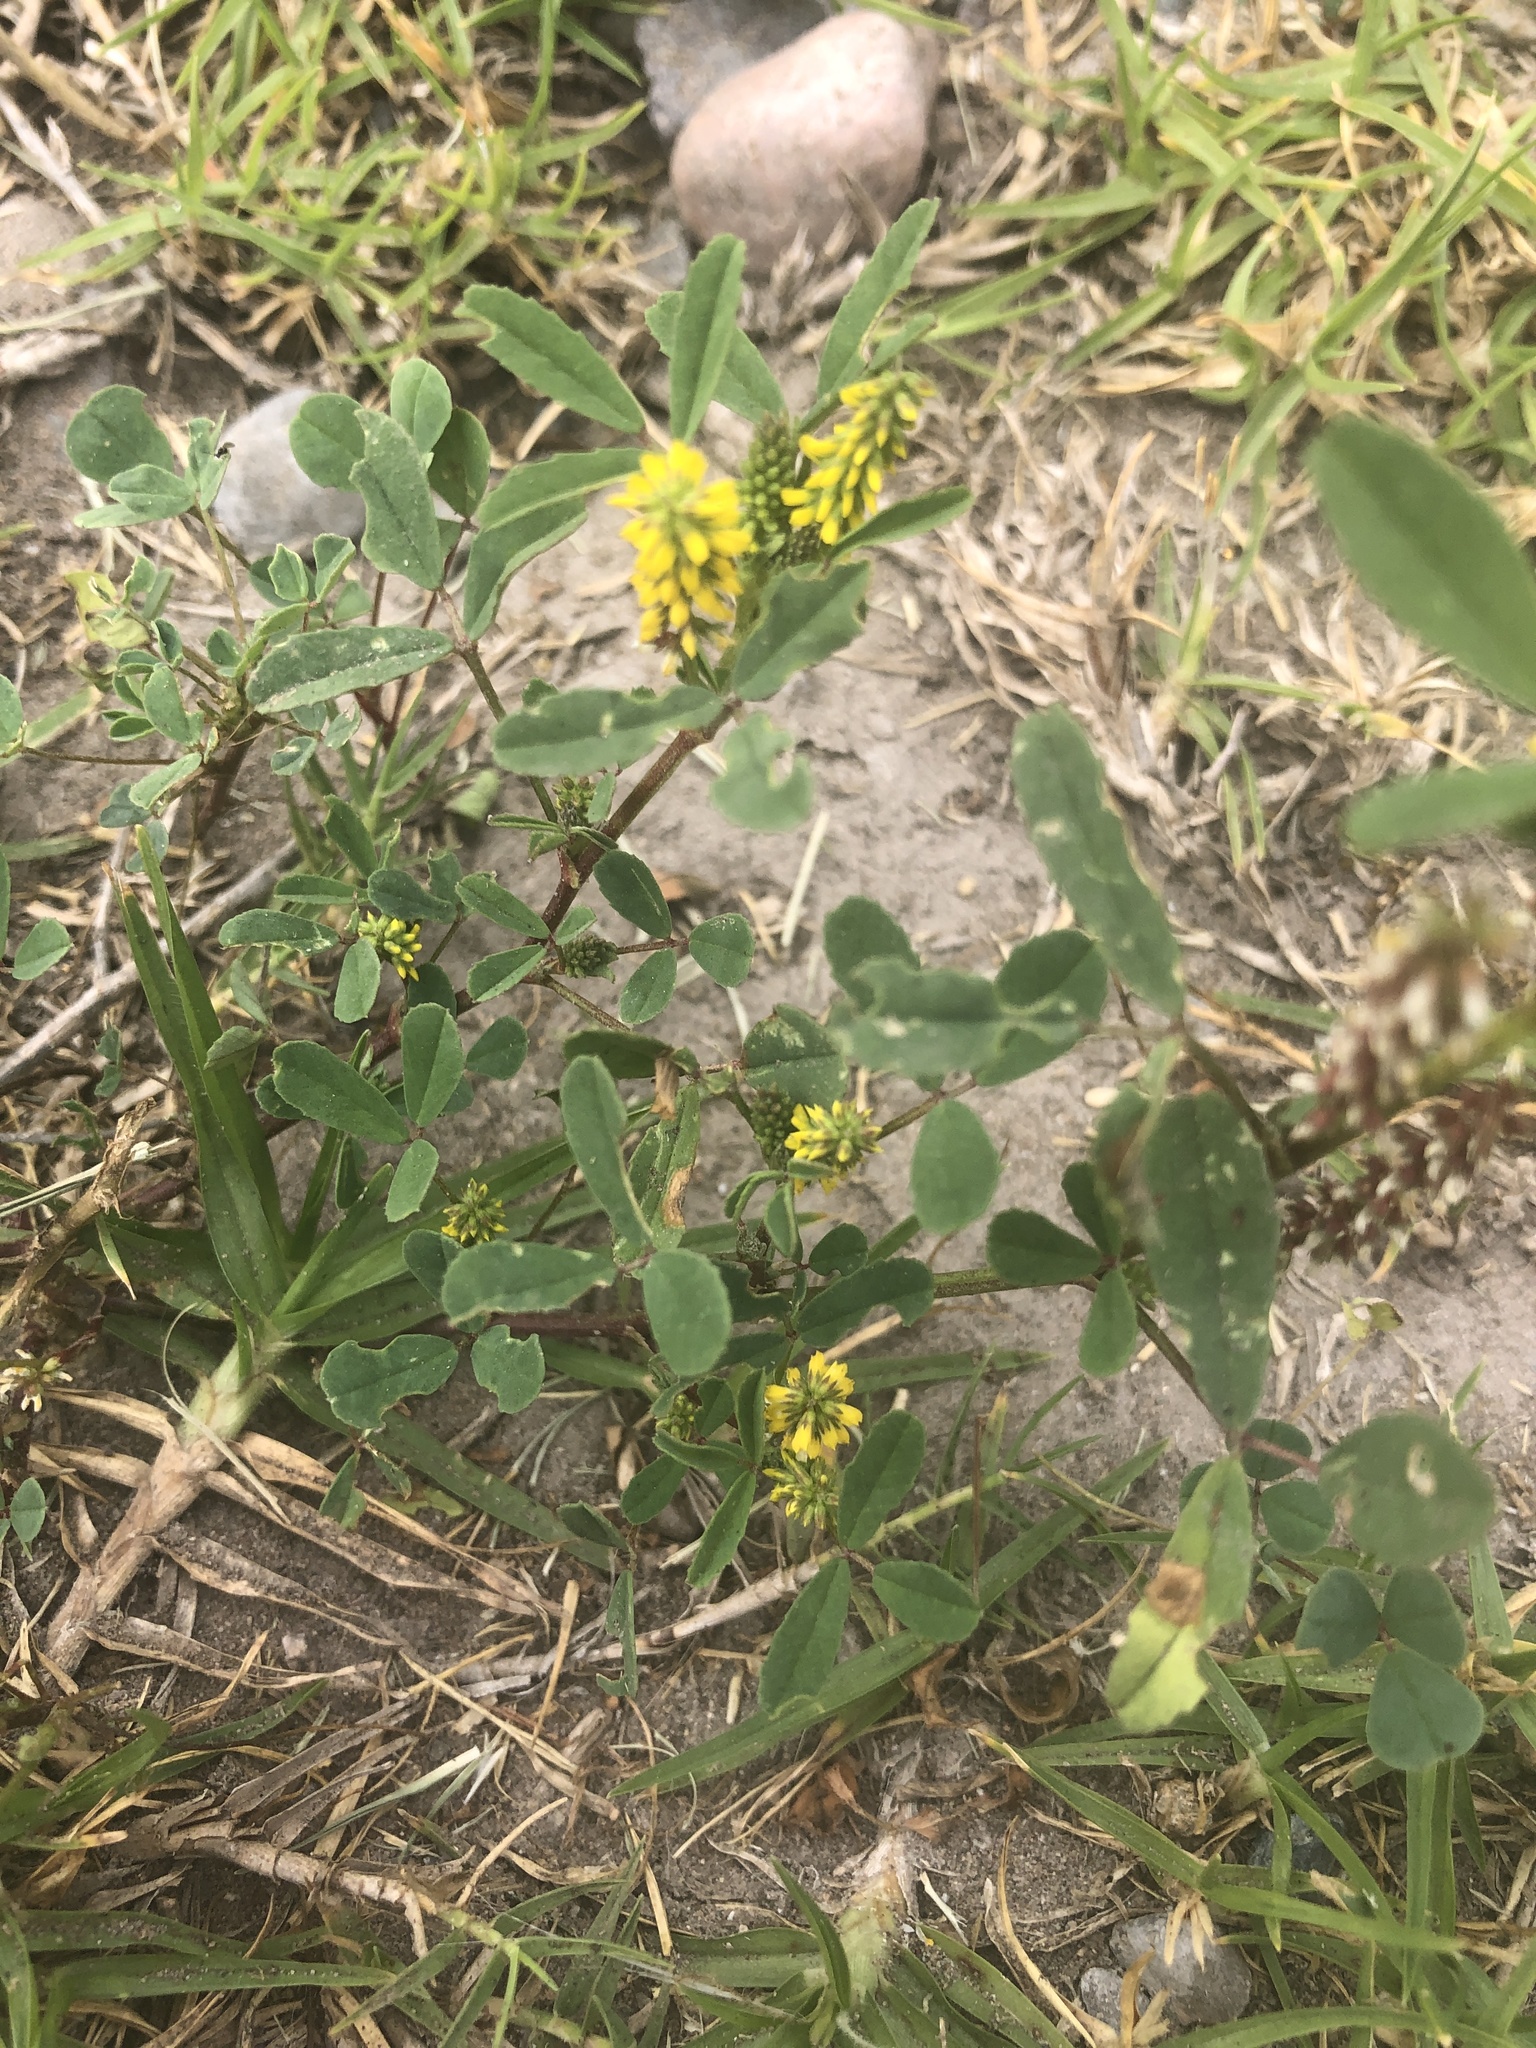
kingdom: Plantae
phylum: Tracheophyta
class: Magnoliopsida
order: Fabales
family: Fabaceae
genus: Melilotus
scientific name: Melilotus indicus
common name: Small melilot
